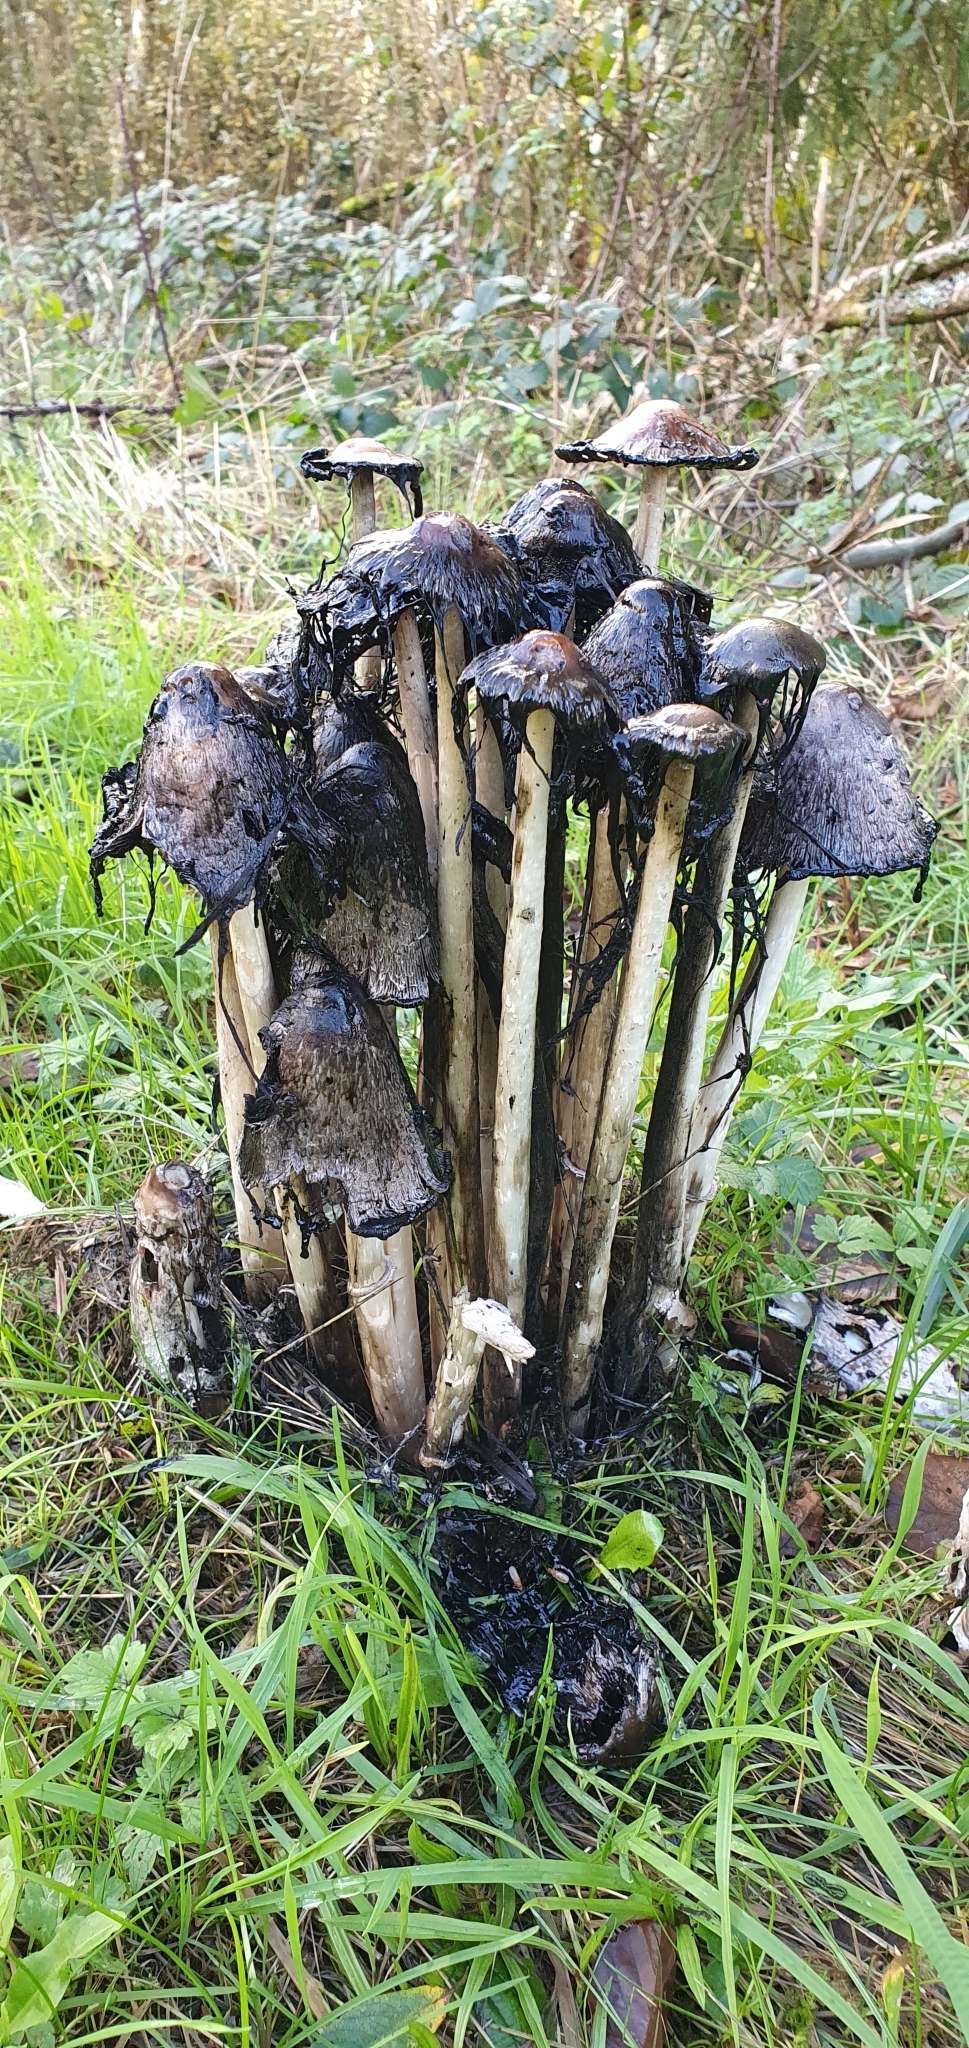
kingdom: Fungi
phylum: Basidiomycota
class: Agaricomycetes
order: Agaricales
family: Agaricaceae
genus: Coprinus
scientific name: Coprinus comatus
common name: Lawyer's wig
